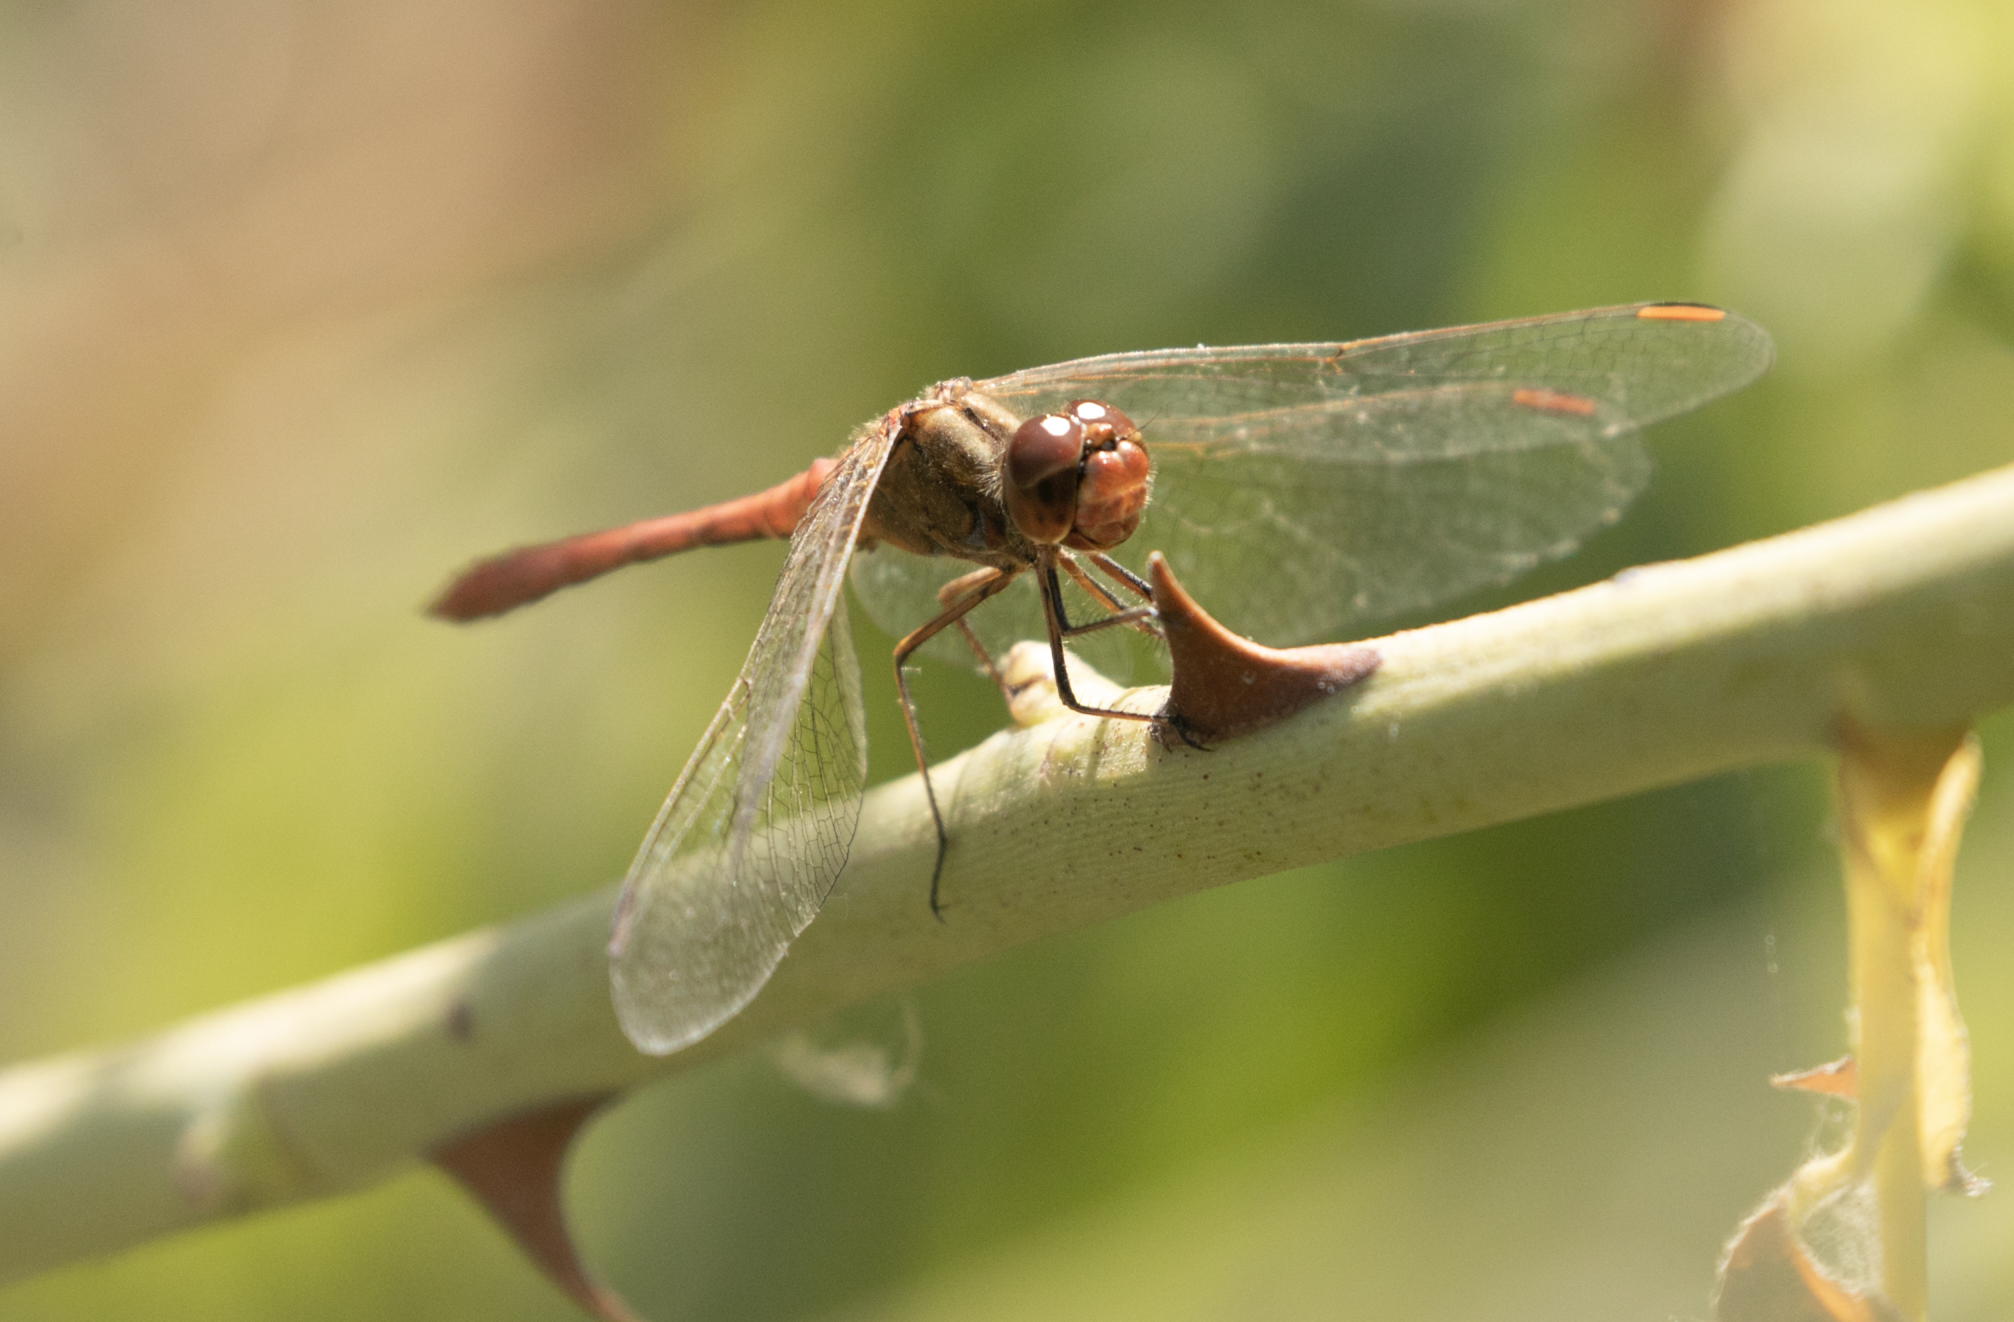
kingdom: Animalia
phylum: Arthropoda
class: Insecta
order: Odonata
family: Libellulidae
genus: Sympetrum
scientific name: Sympetrum meridionale
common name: Southern darter
